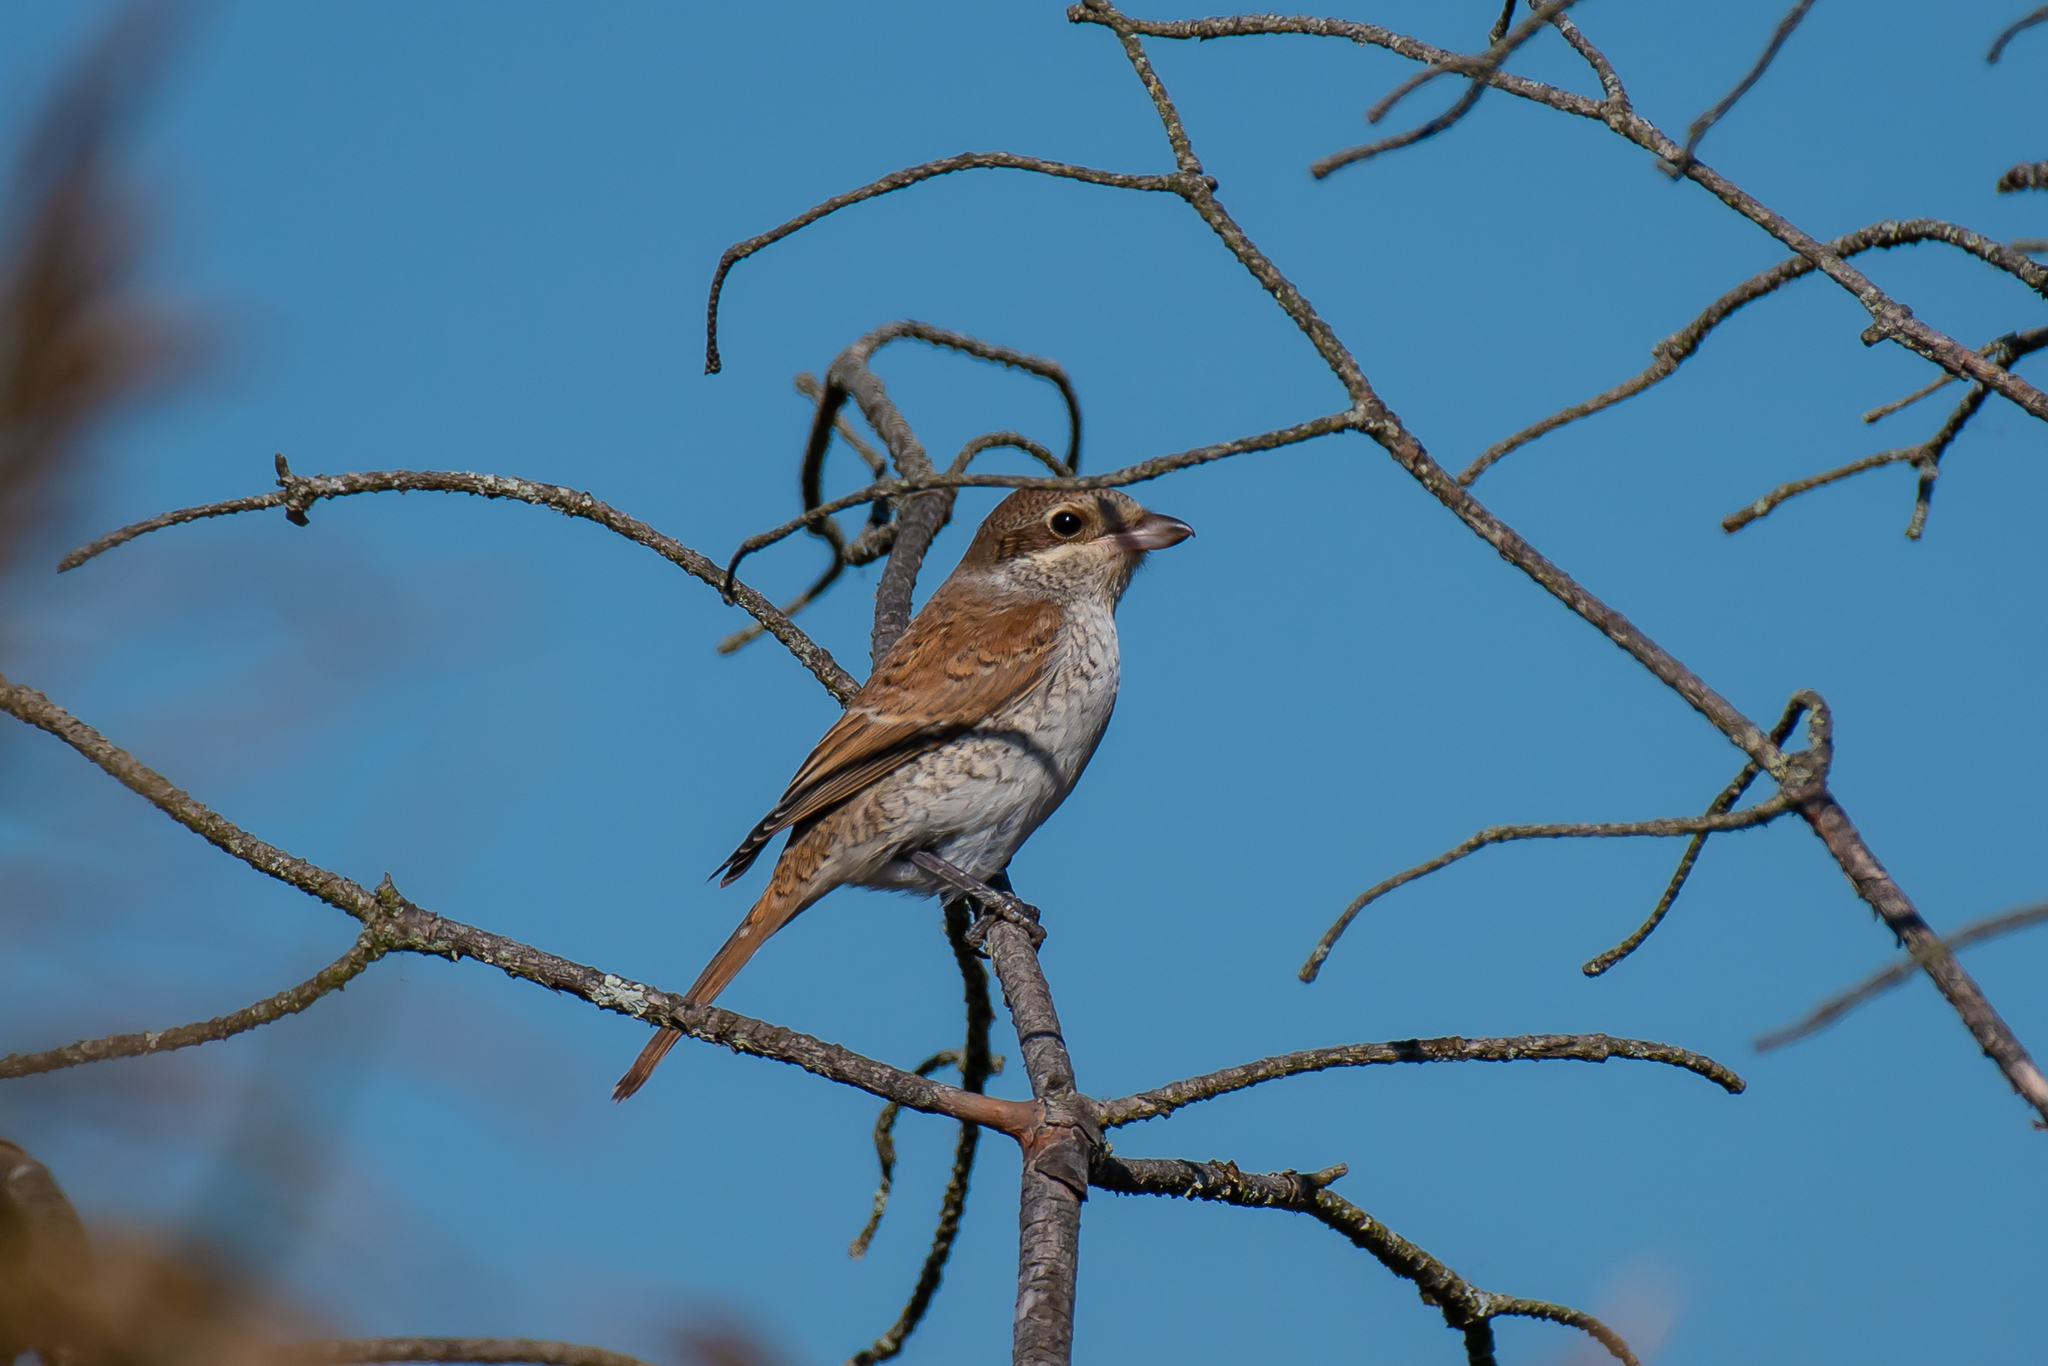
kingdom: Animalia
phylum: Chordata
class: Aves
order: Passeriformes
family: Laniidae
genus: Lanius
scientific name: Lanius collurio
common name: Red-backed shrike
